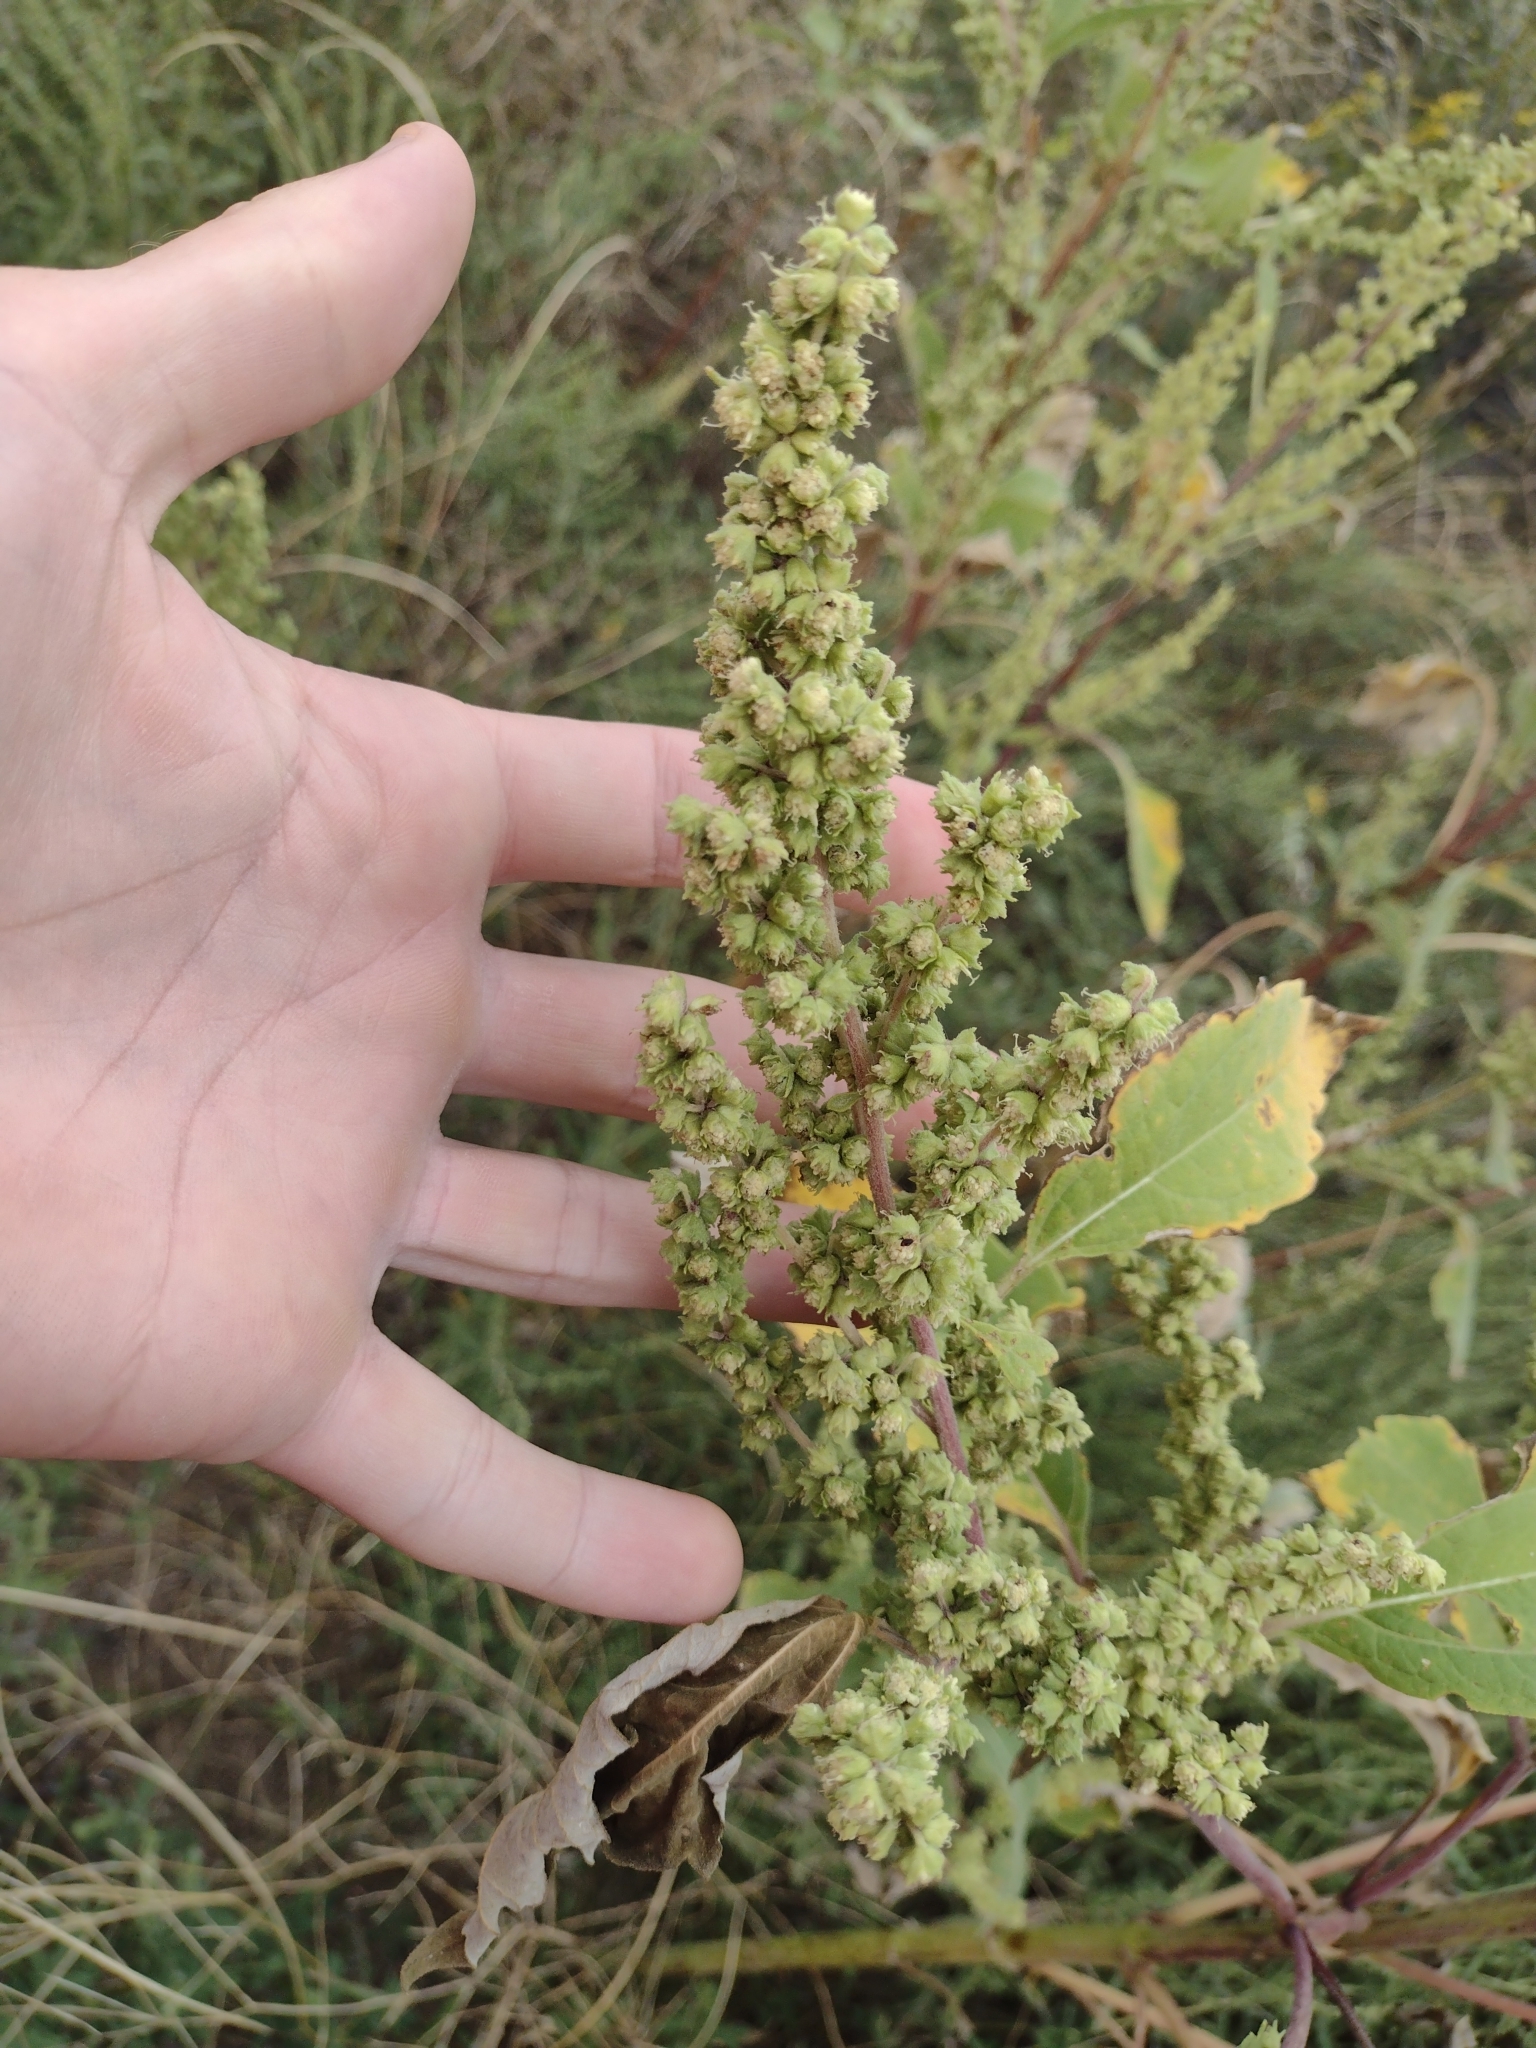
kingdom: Plantae
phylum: Tracheophyta
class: Magnoliopsida
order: Asterales
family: Asteraceae
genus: Cyclachaena
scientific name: Cyclachaena xanthiifolia
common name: Giant sumpweed
